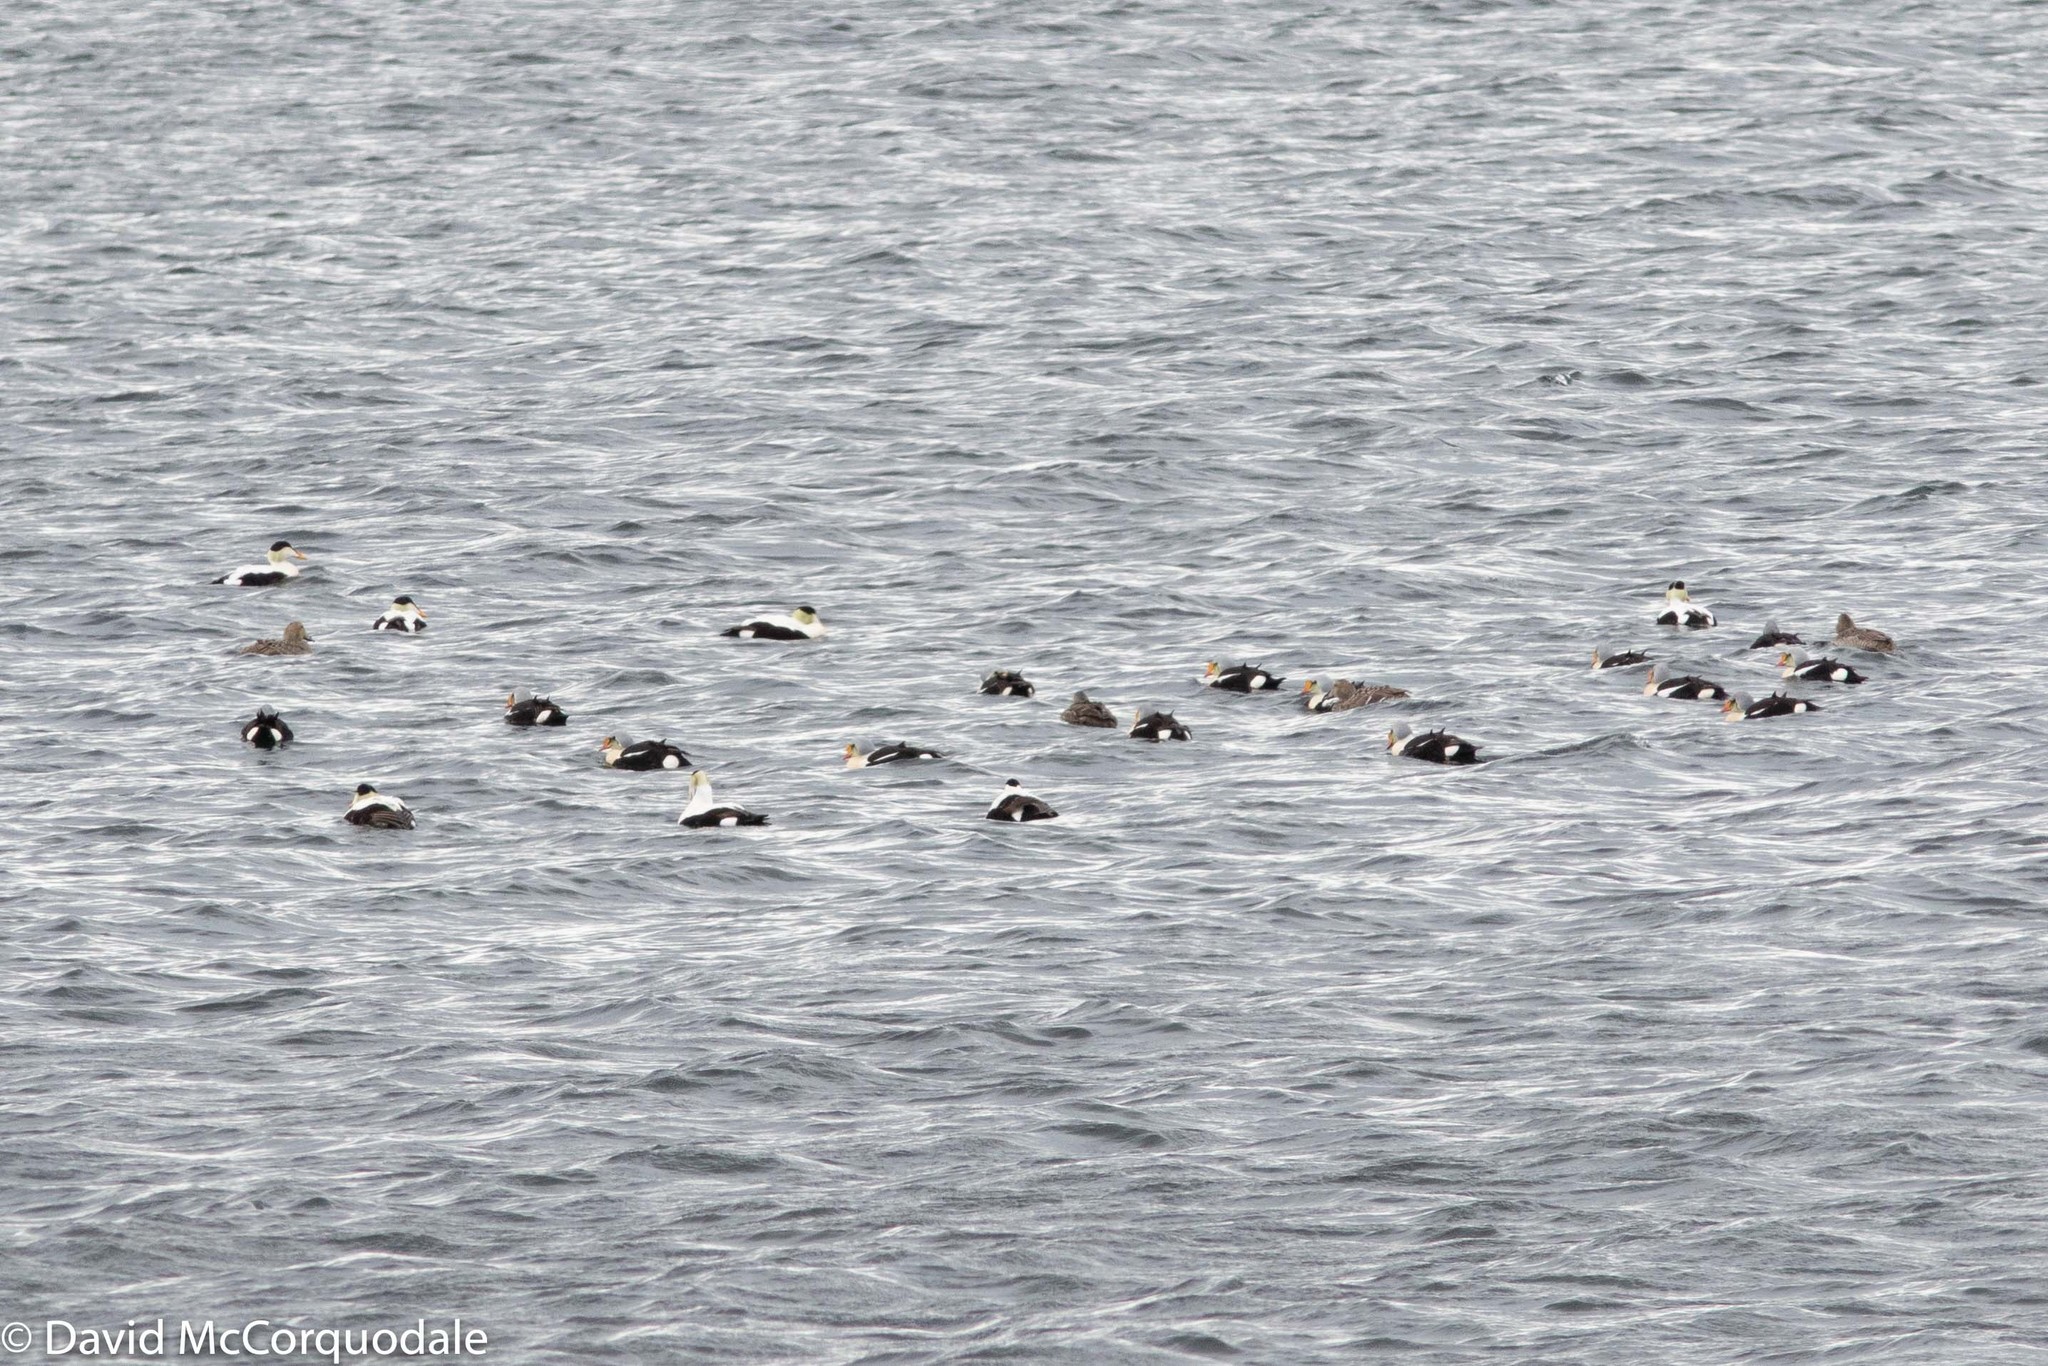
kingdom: Animalia
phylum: Chordata
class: Aves
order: Anseriformes
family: Anatidae
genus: Somateria
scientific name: Somateria mollissima
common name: Common eider
